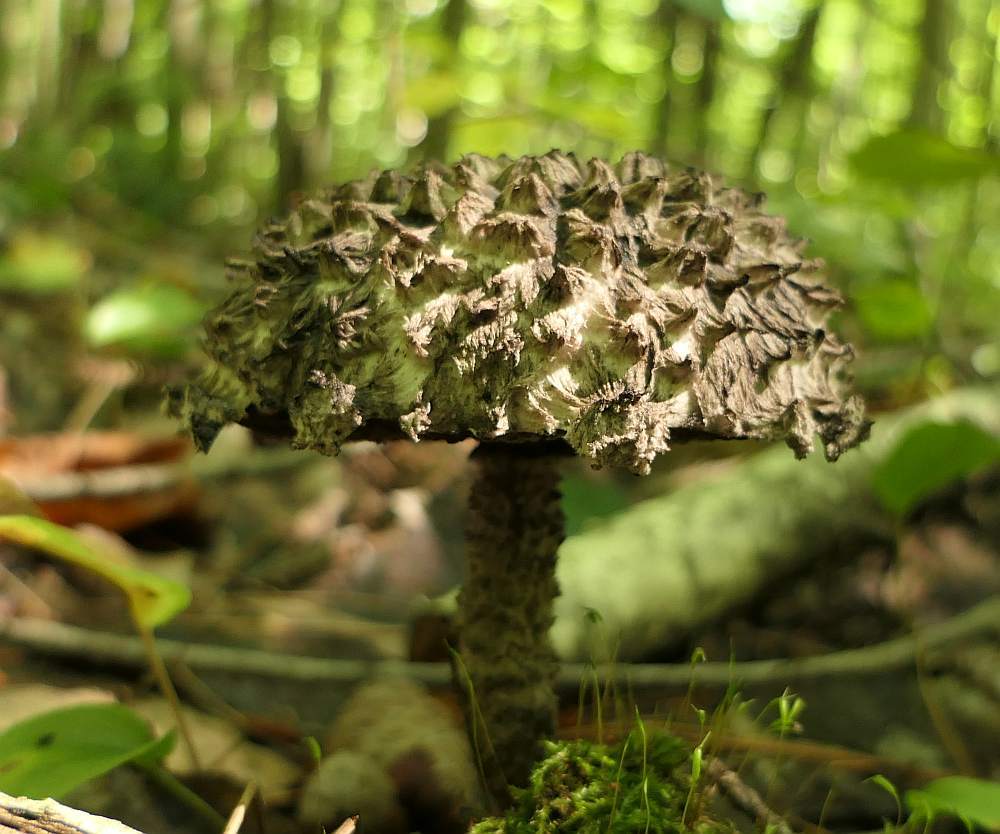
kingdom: Fungi
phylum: Basidiomycota
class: Agaricomycetes
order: Boletales
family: Boletaceae
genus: Strobilomyces
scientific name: Strobilomyces strobilaceus
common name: Old man of the woods
